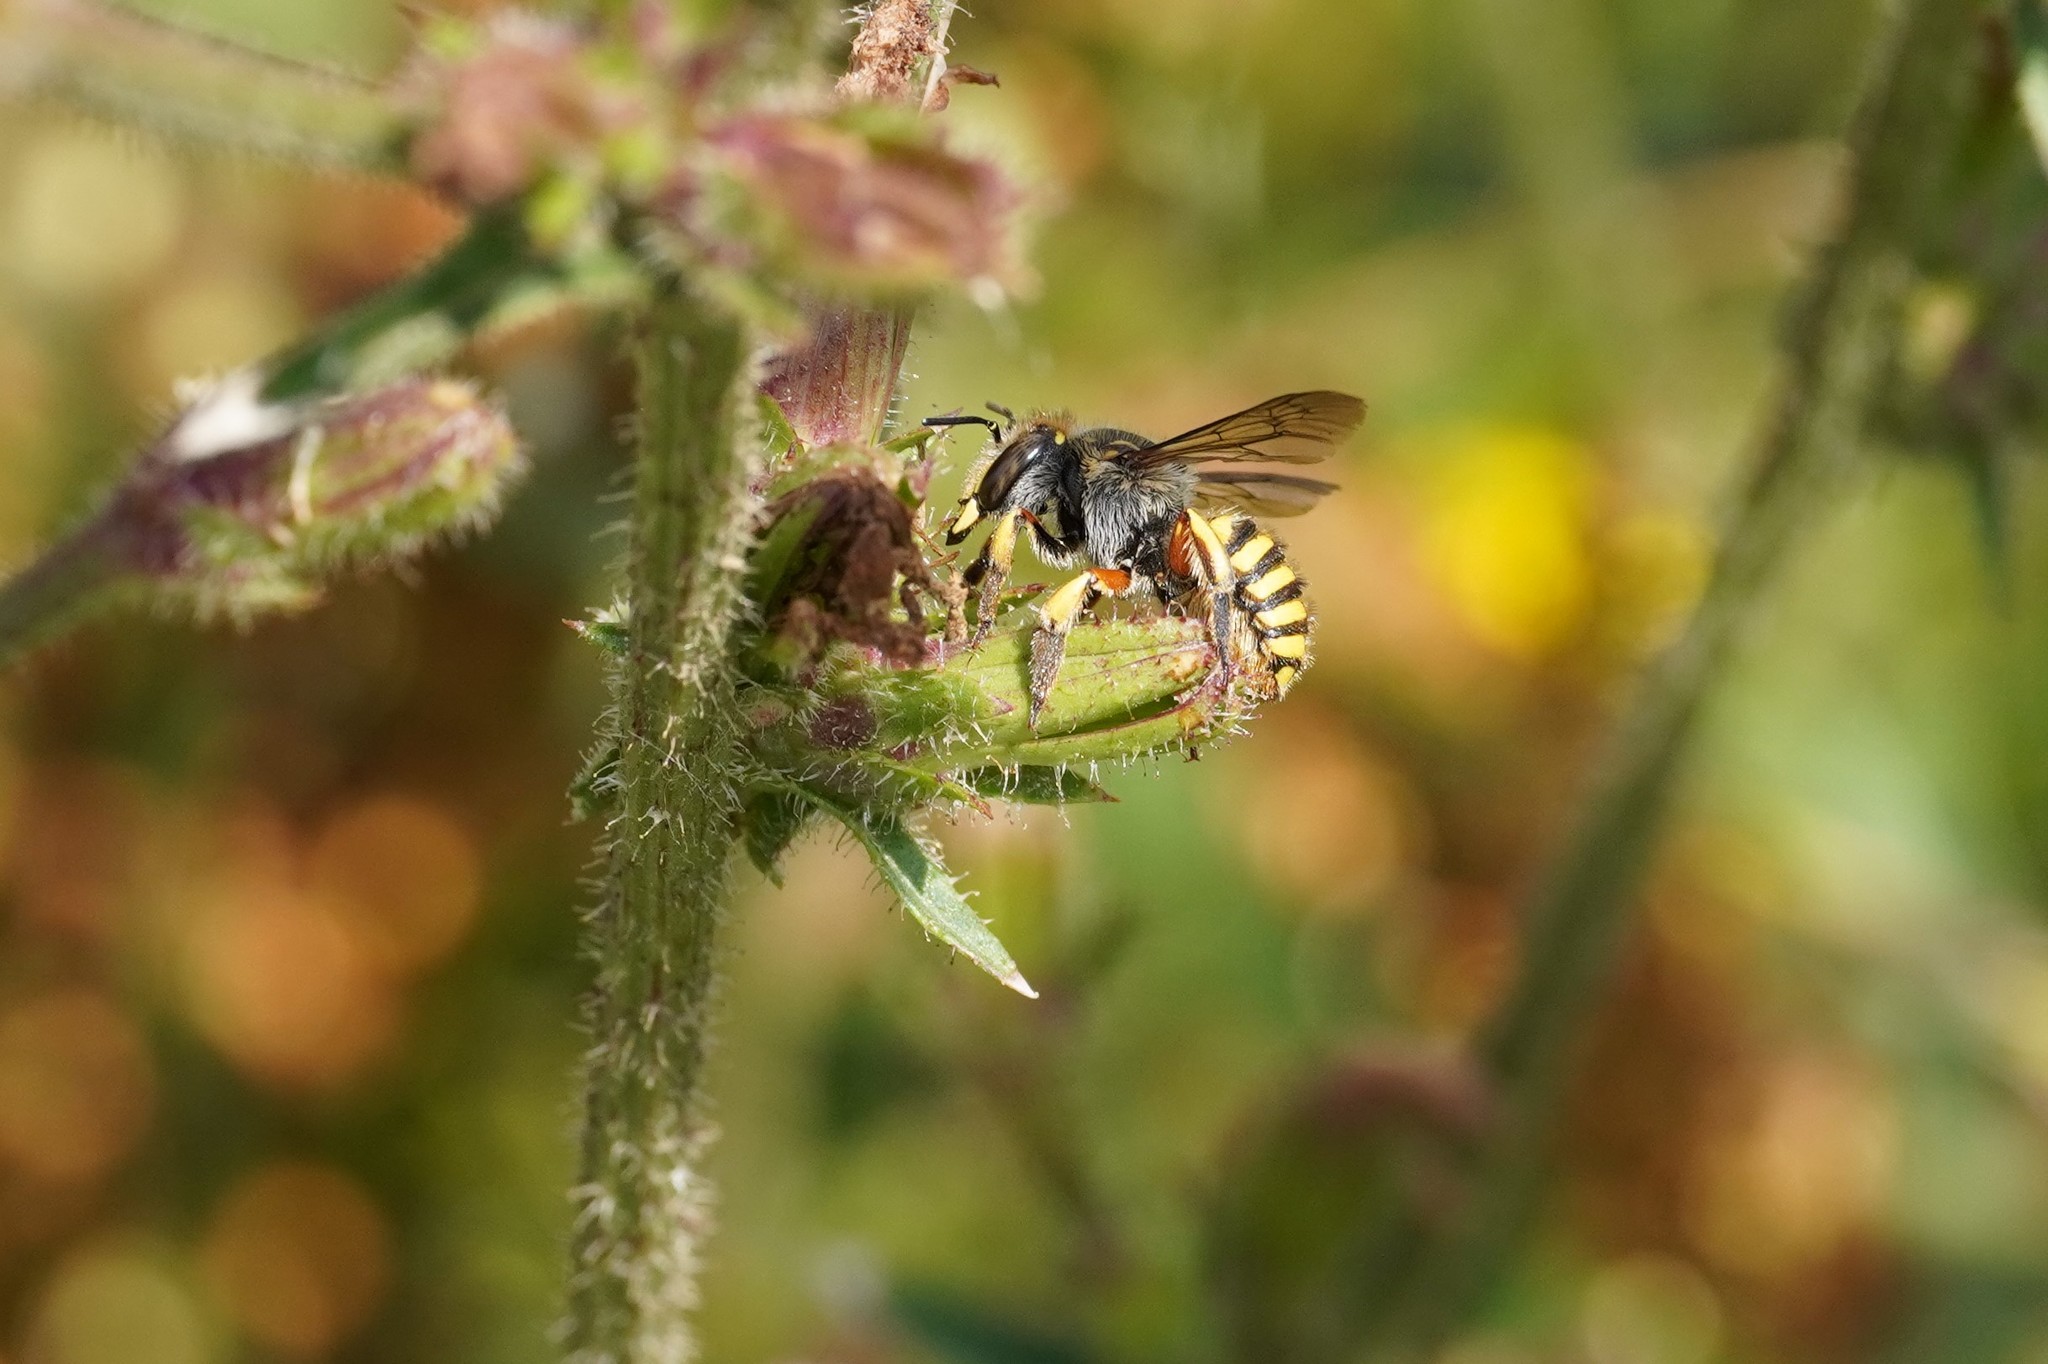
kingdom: Animalia
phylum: Arthropoda
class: Insecta
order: Hymenoptera
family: Megachilidae
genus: Anthidium
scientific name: Anthidium manicatum
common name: Wool carder bee
